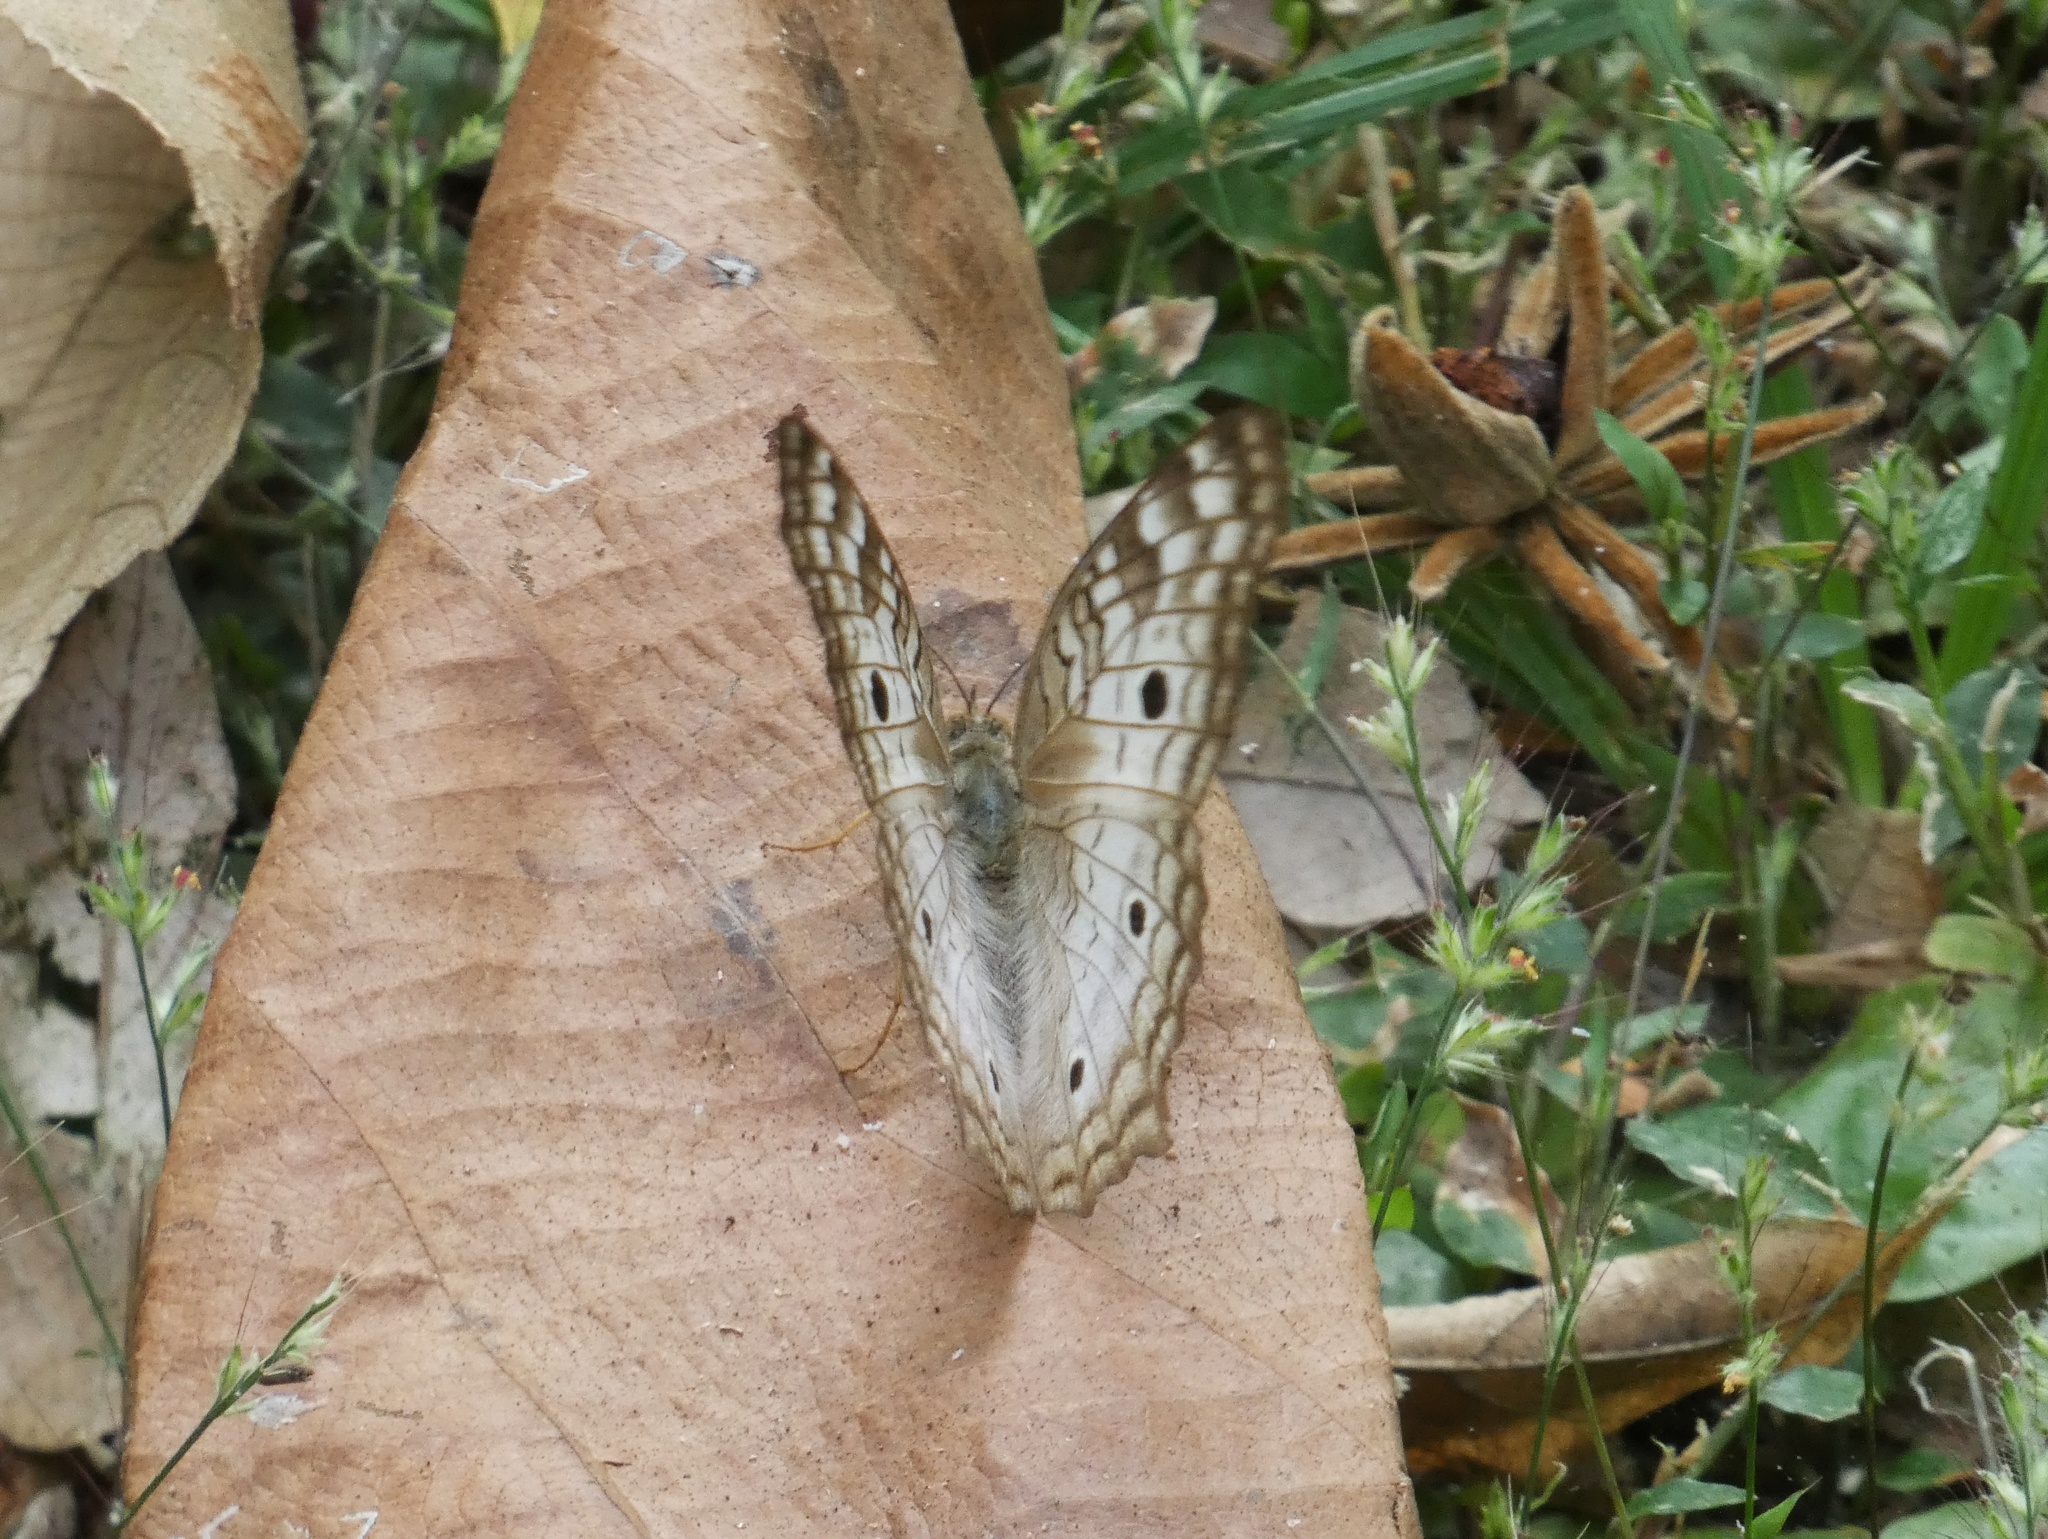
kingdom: Animalia
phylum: Arthropoda
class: Insecta
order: Lepidoptera
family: Nymphalidae
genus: Anartia
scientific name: Anartia jatrophae
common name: White peacock
